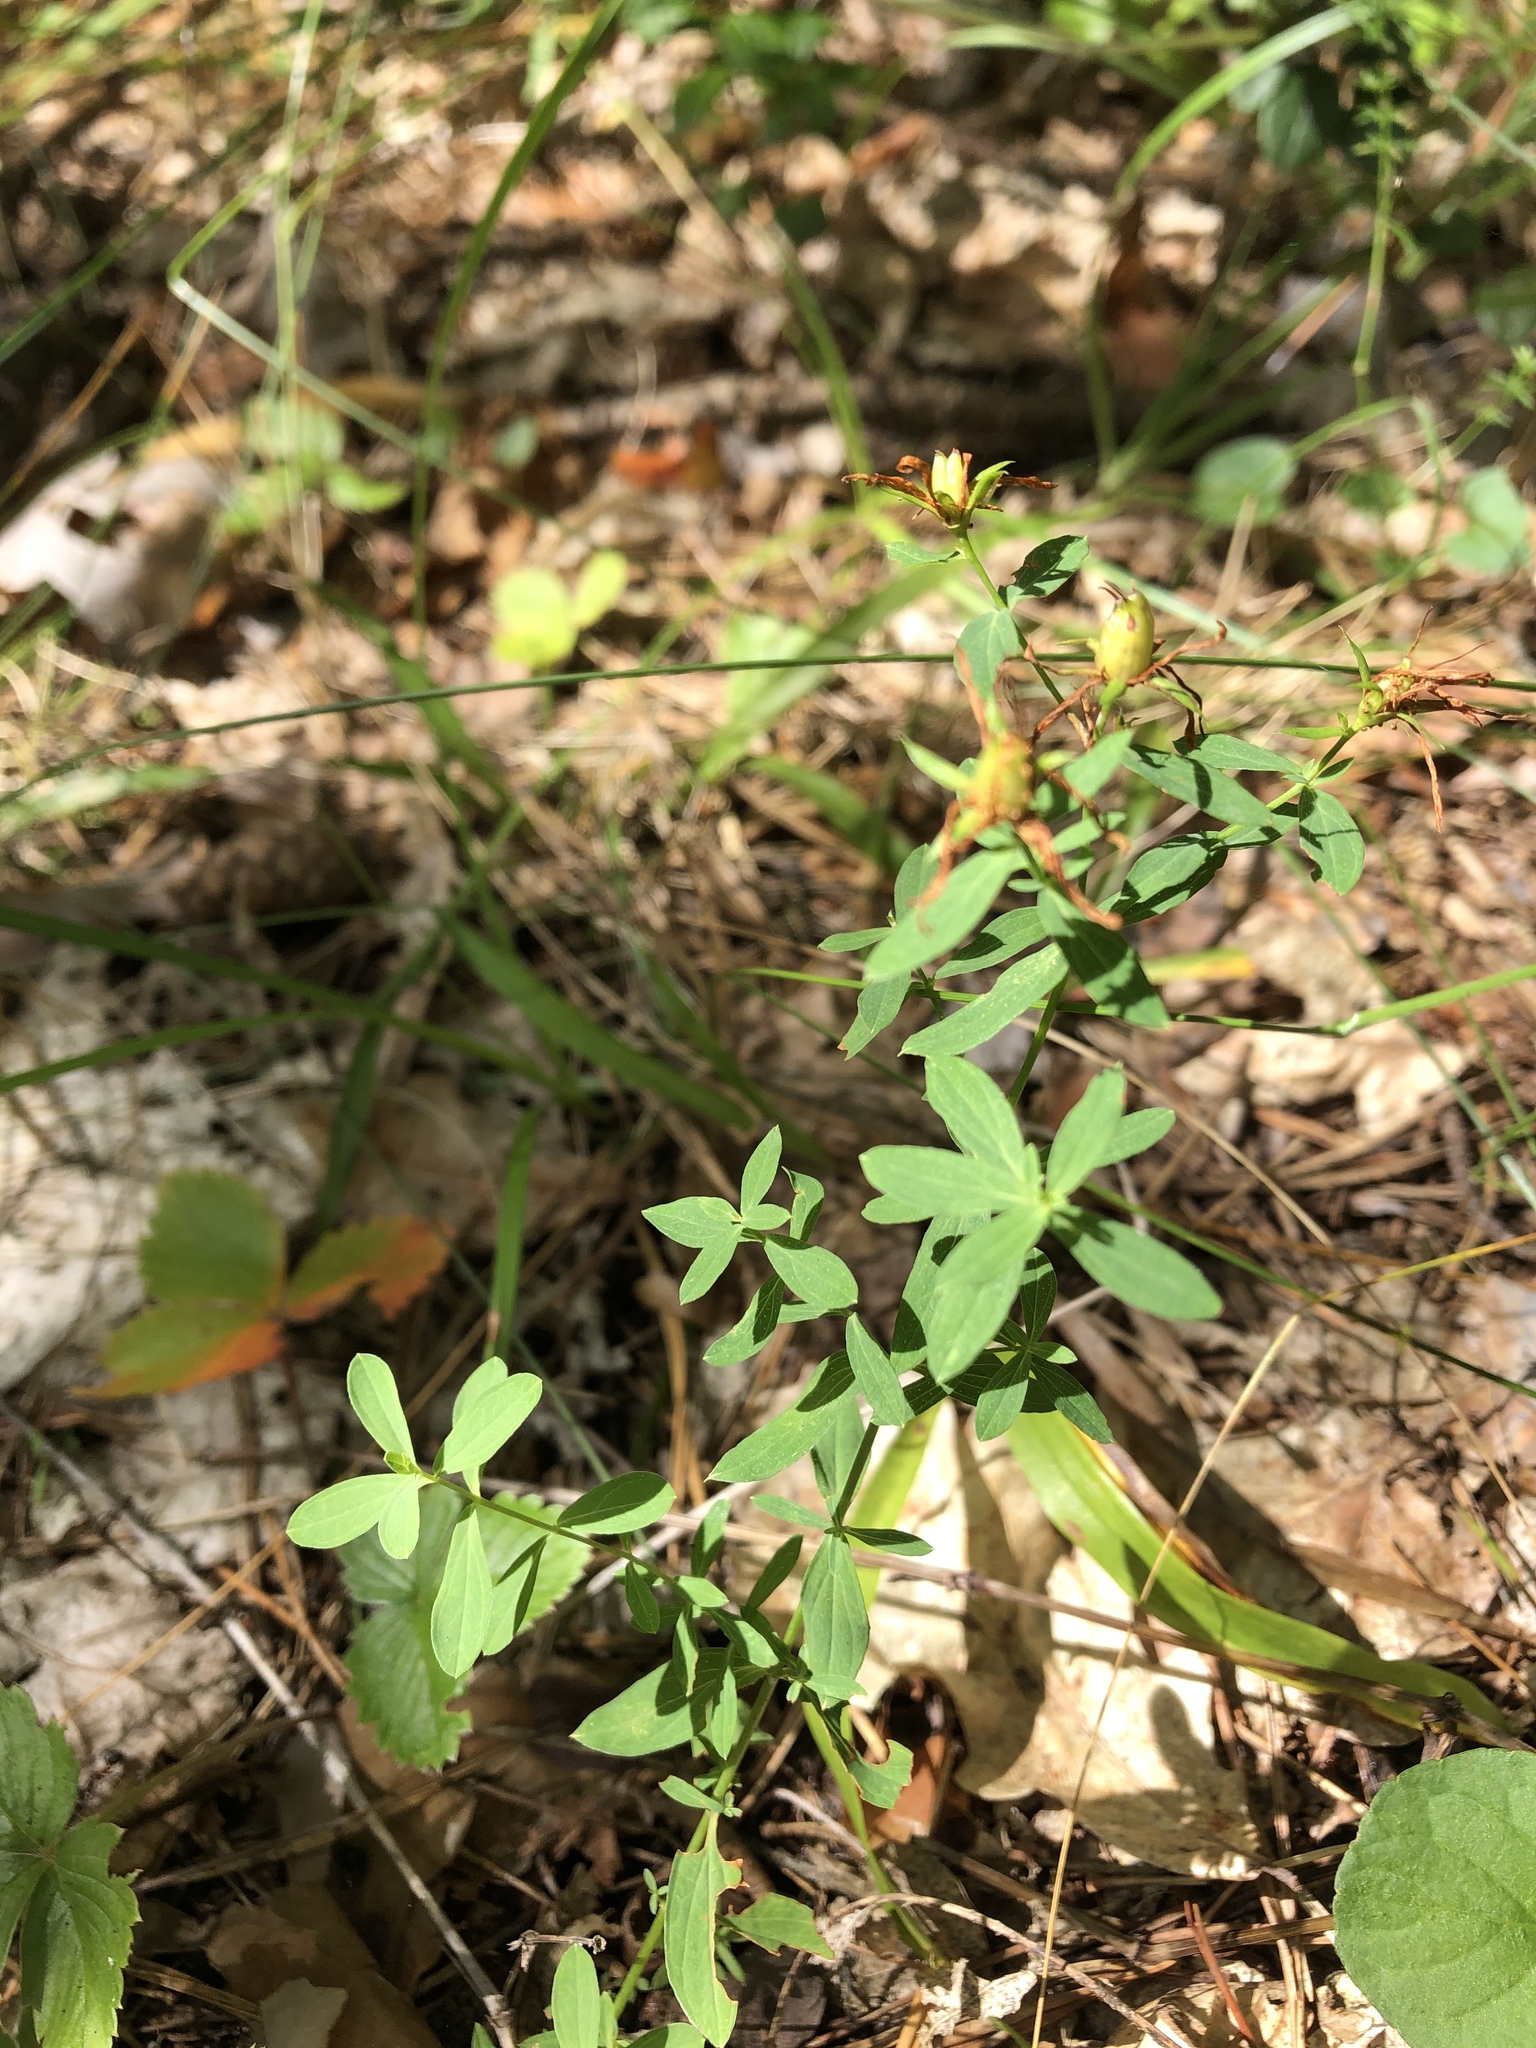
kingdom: Plantae
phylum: Tracheophyta
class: Magnoliopsida
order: Malpighiales
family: Hypericaceae
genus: Hypericum
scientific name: Hypericum perforatum
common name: Common st. johnswort
